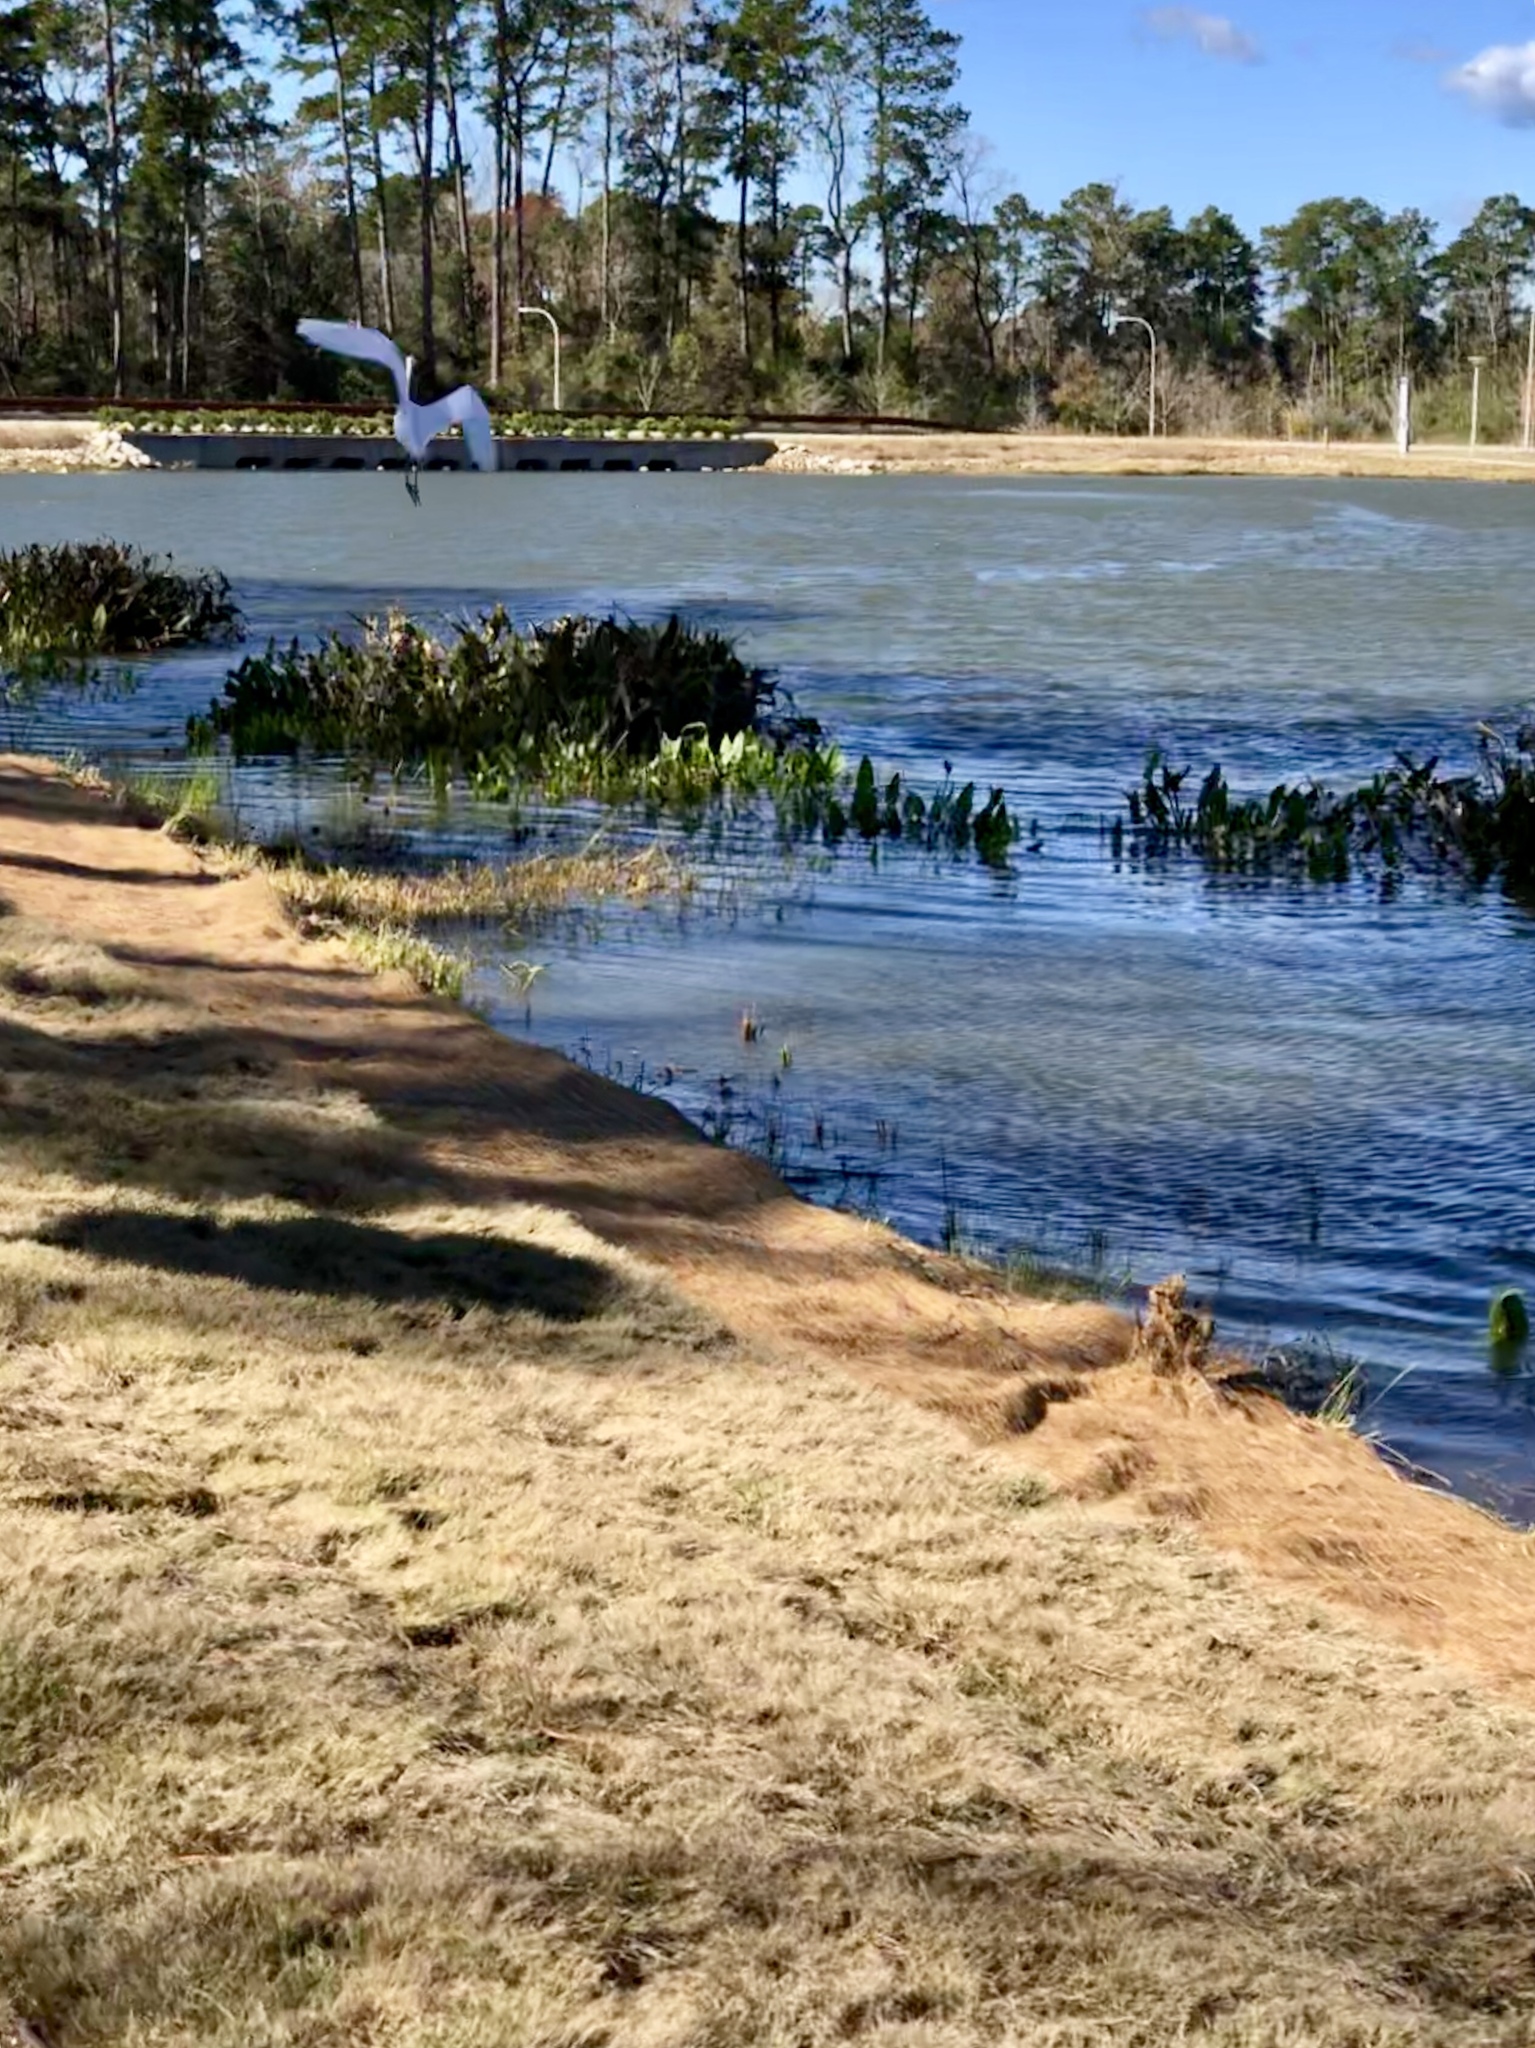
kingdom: Animalia
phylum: Chordata
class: Aves
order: Pelecaniformes
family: Ardeidae
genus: Ardea
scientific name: Ardea alba
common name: Great egret
